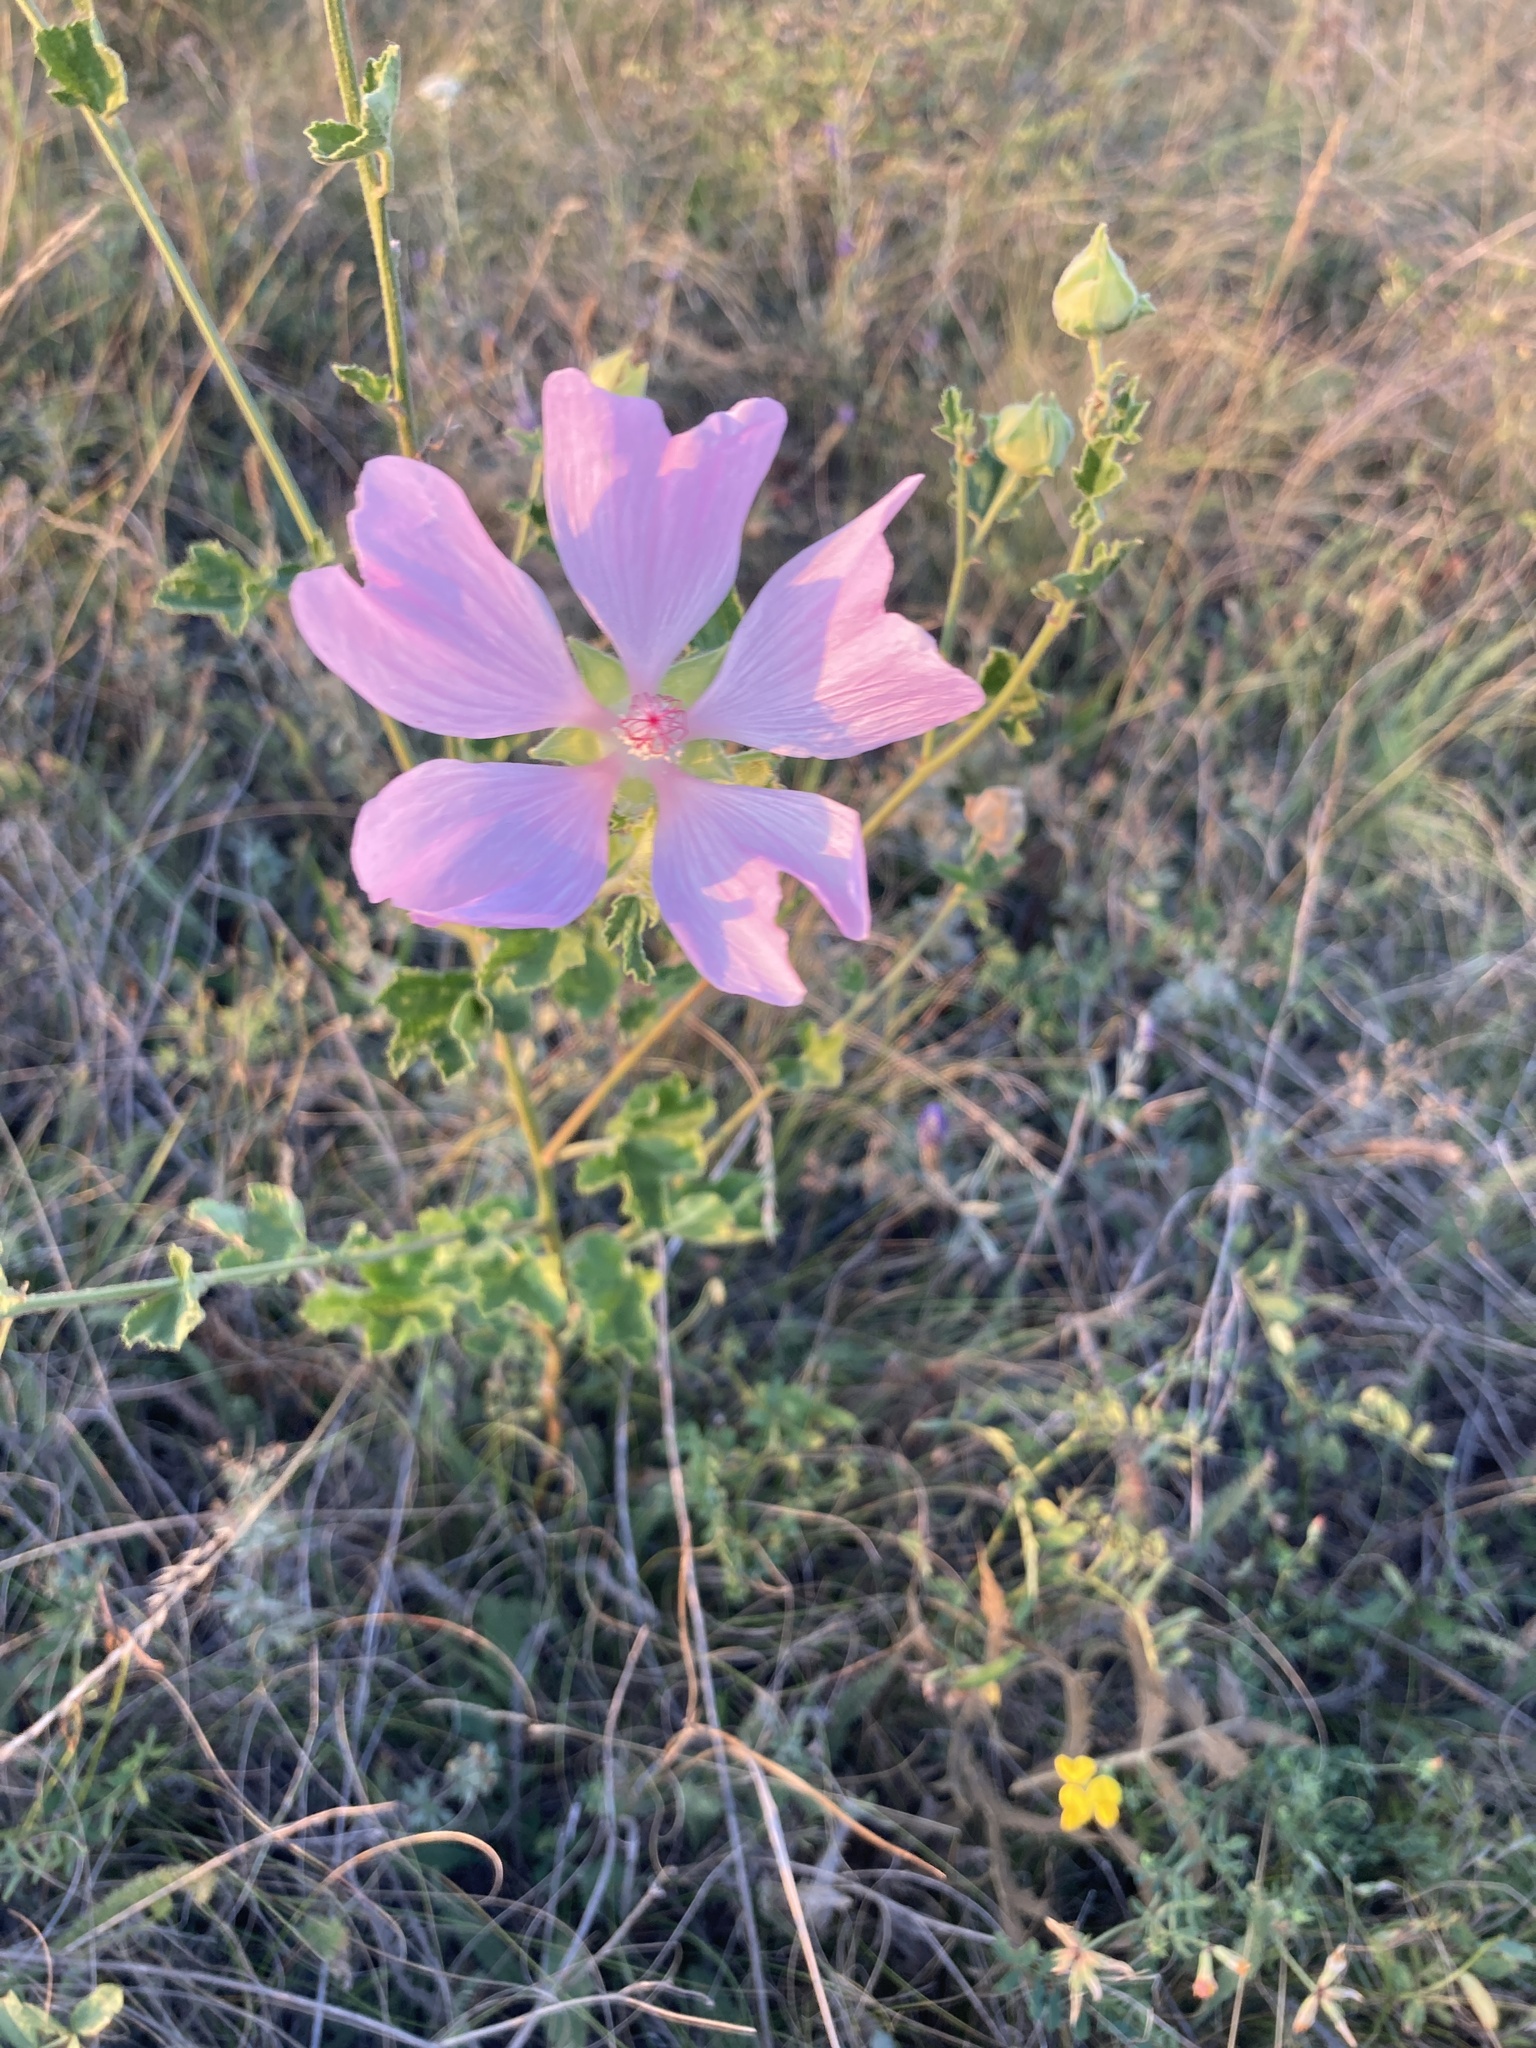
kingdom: Plantae
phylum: Tracheophyta
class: Magnoliopsida
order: Malvales
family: Malvaceae
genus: Malva
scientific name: Malva thuringiaca
